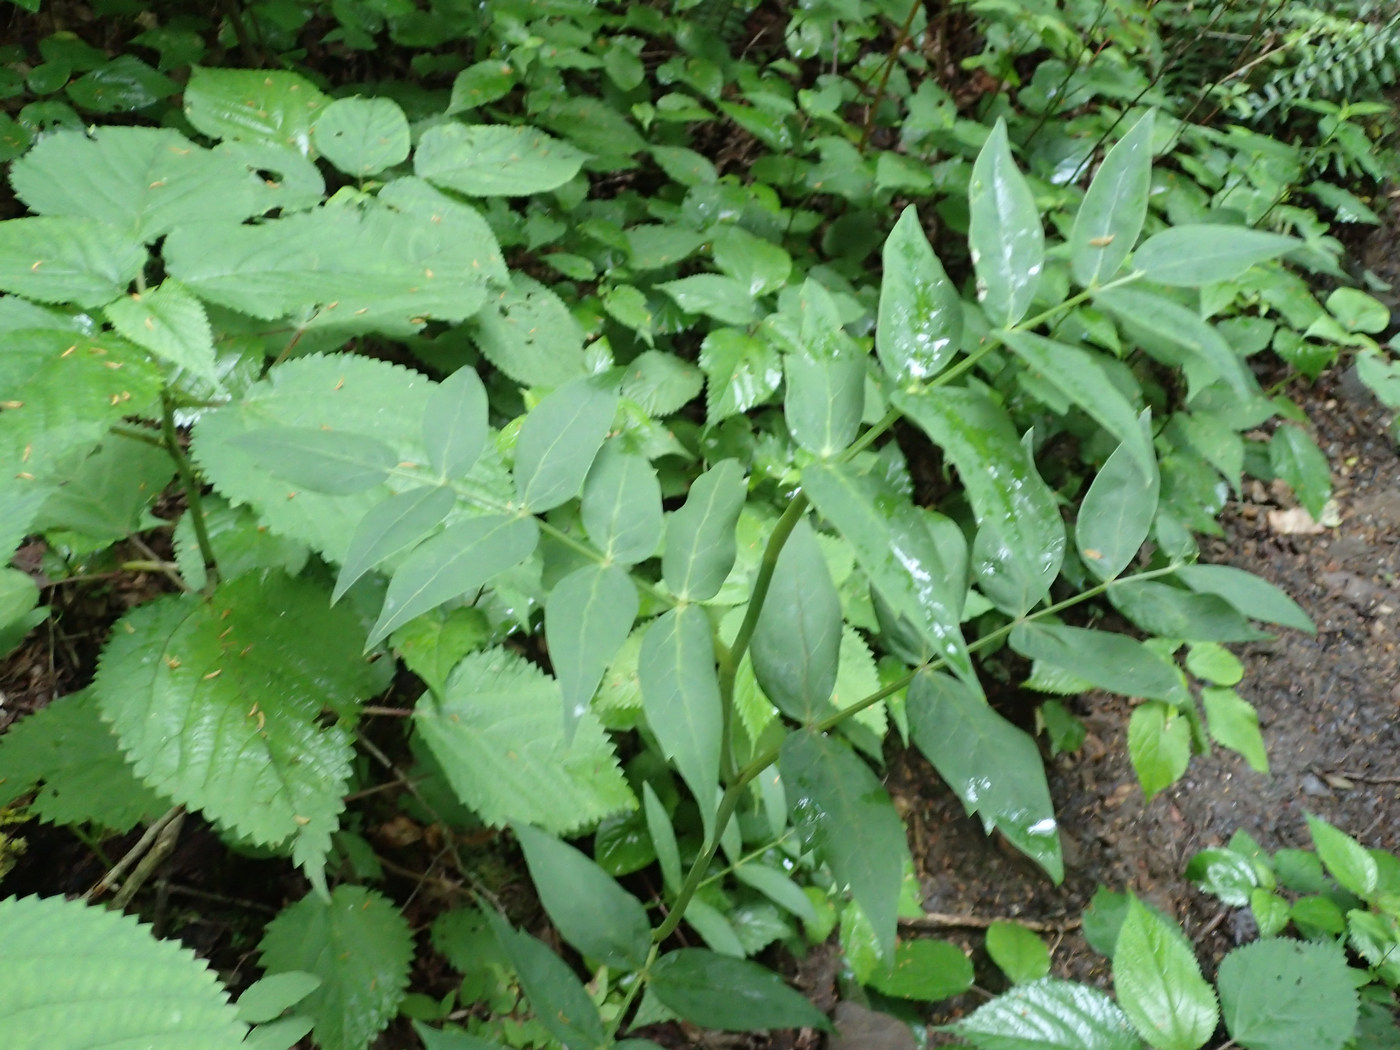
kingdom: Plantae
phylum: Tracheophyta
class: Magnoliopsida
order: Apiales
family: Apiaceae
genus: Oxypolis
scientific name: Oxypolis rigidior
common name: Cowbane
